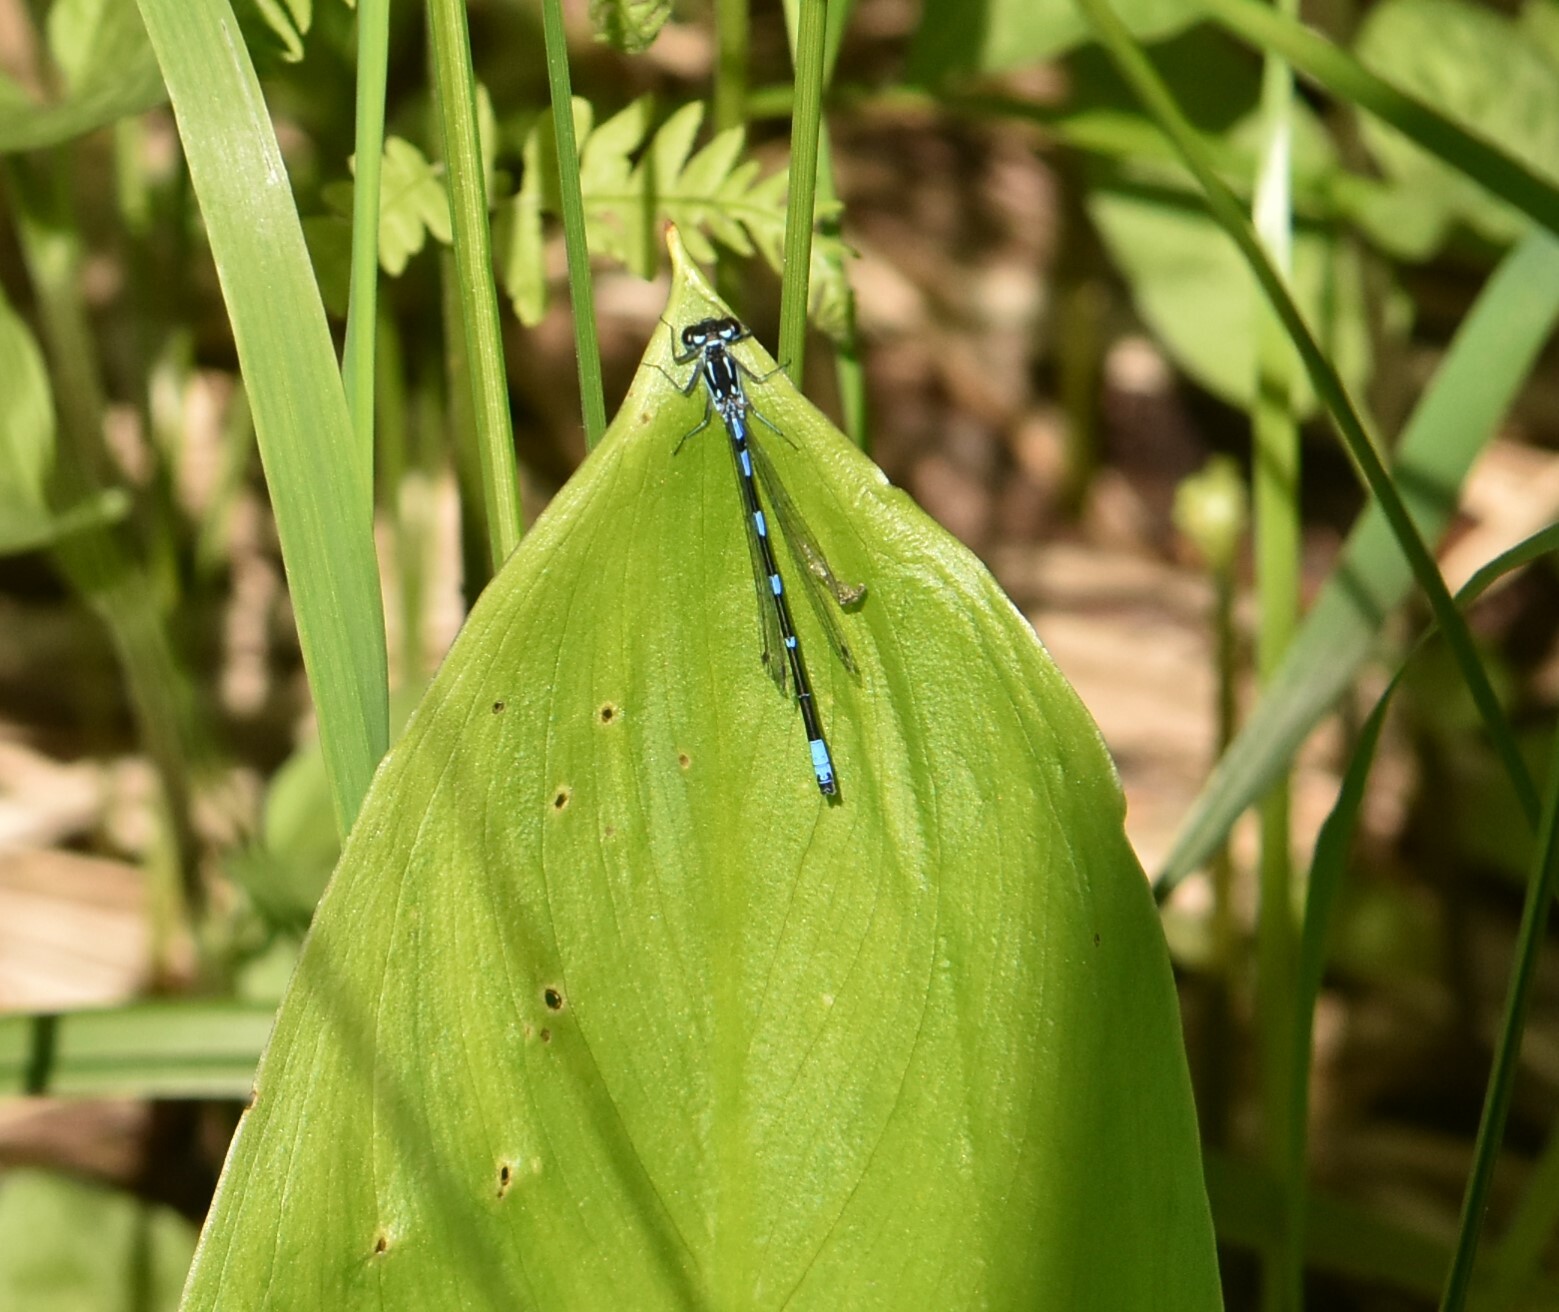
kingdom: Animalia
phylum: Arthropoda
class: Insecta
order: Odonata
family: Coenagrionidae
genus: Coenagrion
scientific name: Coenagrion pulchellum
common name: Variable bluet
